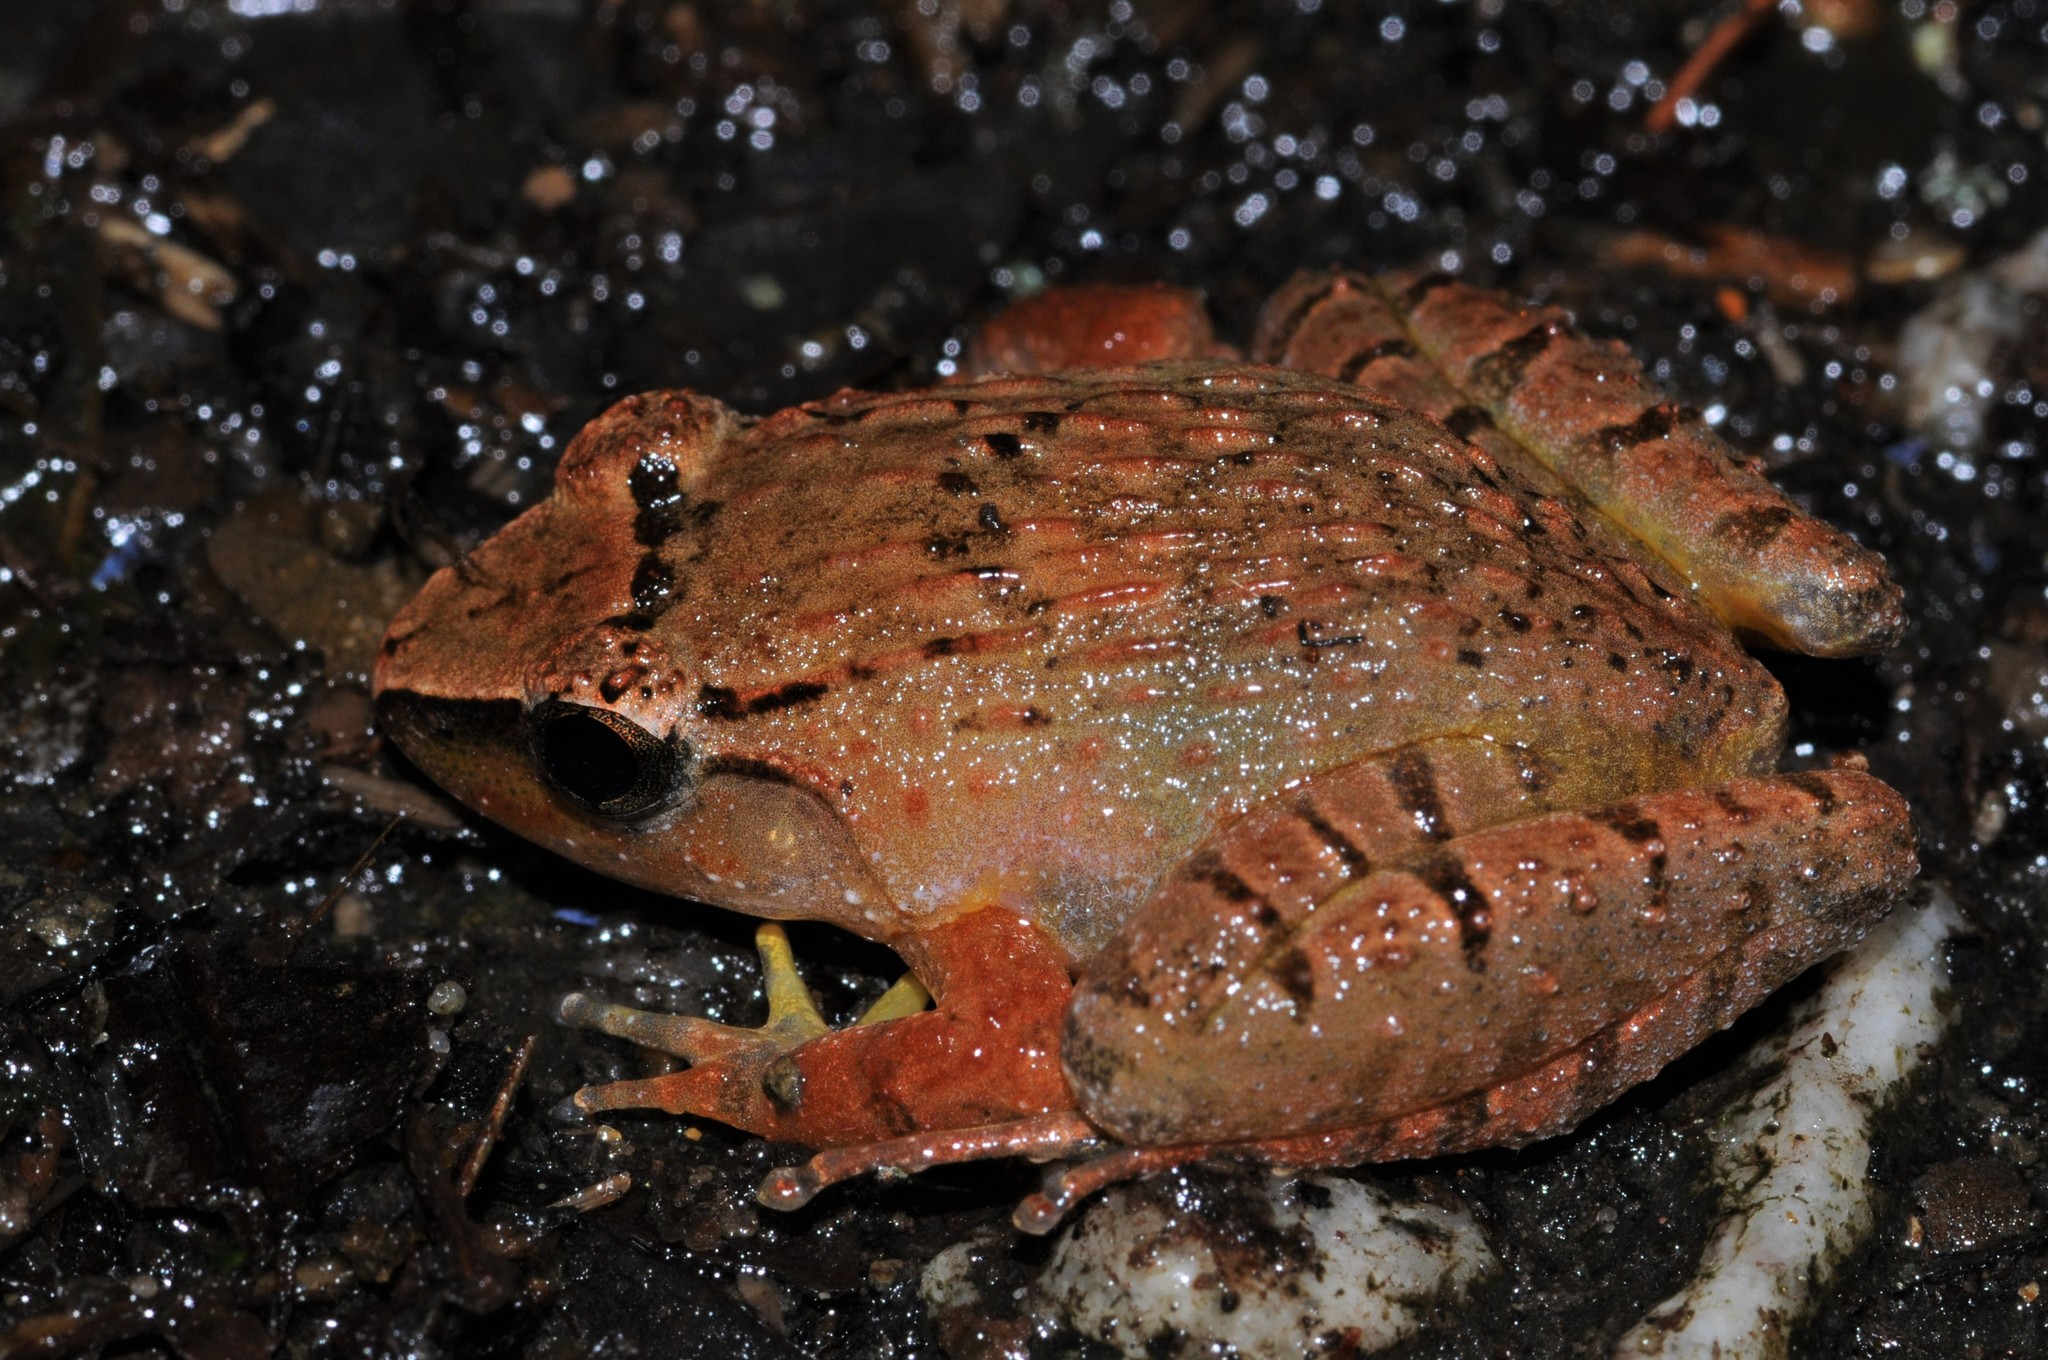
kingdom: Animalia
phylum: Chordata
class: Amphibia
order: Anura
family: Dicroglossidae
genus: Limnonectes
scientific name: Limnonectes plicatellus
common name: Penang wart frog/rhinoceros frog
